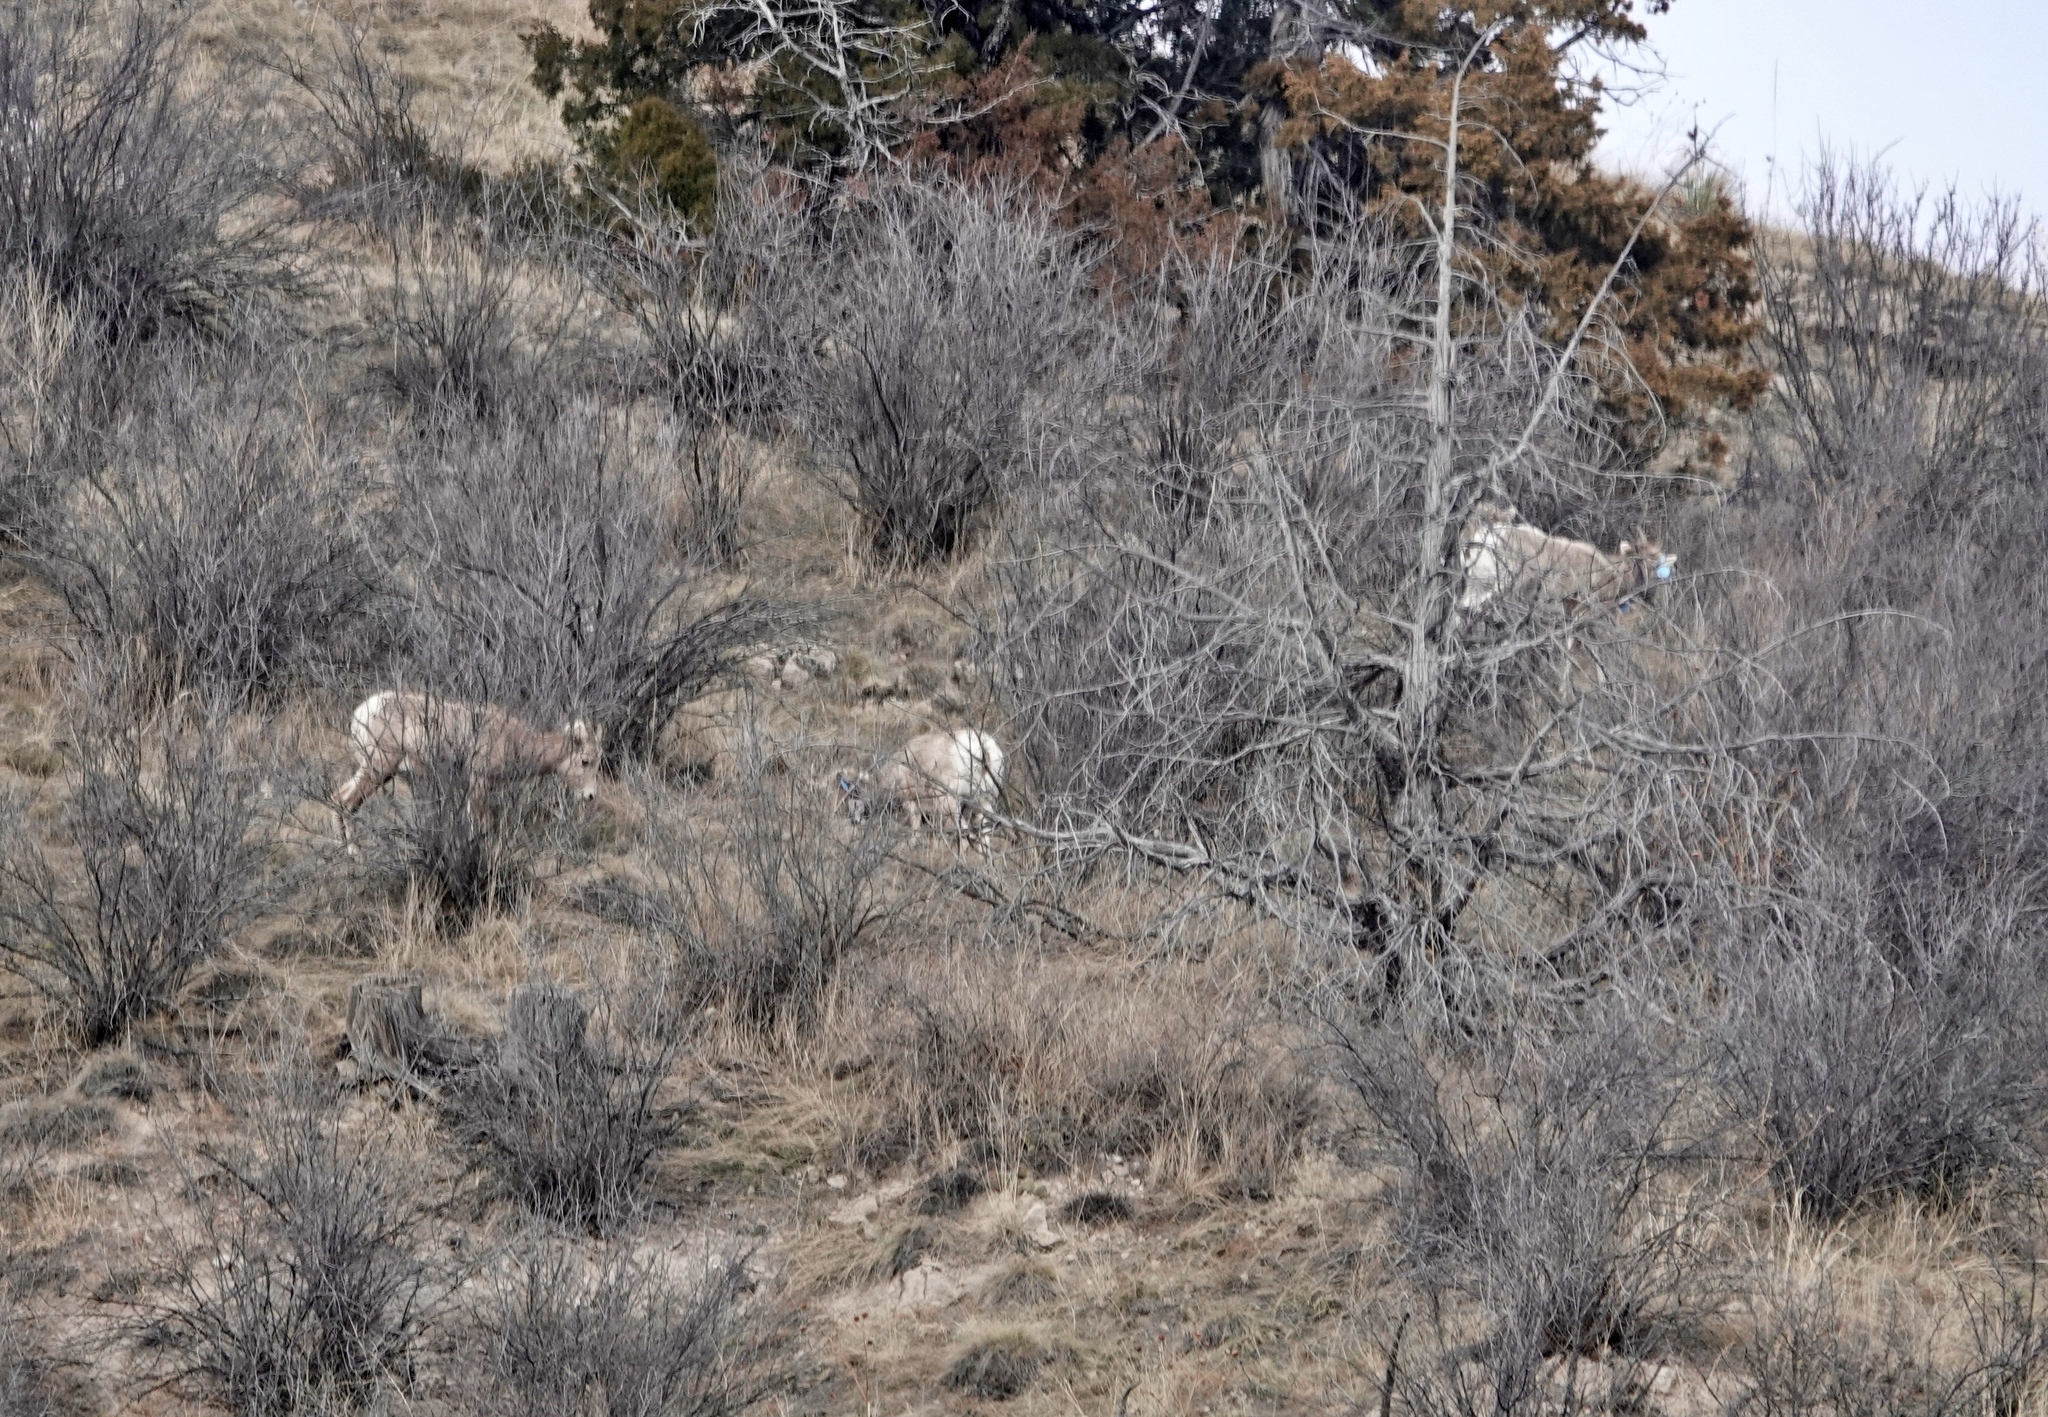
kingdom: Animalia
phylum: Chordata
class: Mammalia
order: Artiodactyla
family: Bovidae
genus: Ovis
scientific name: Ovis canadensis
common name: Bighorn sheep
